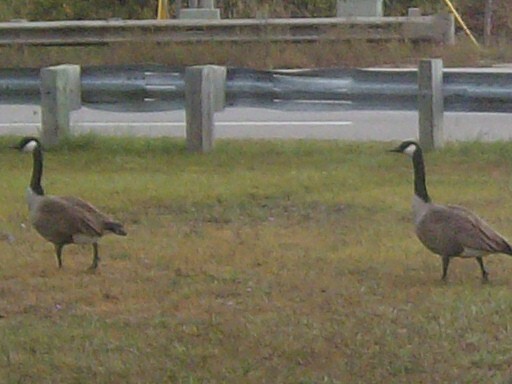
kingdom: Animalia
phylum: Chordata
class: Aves
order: Anseriformes
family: Anatidae
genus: Branta
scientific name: Branta canadensis
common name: Canada goose
